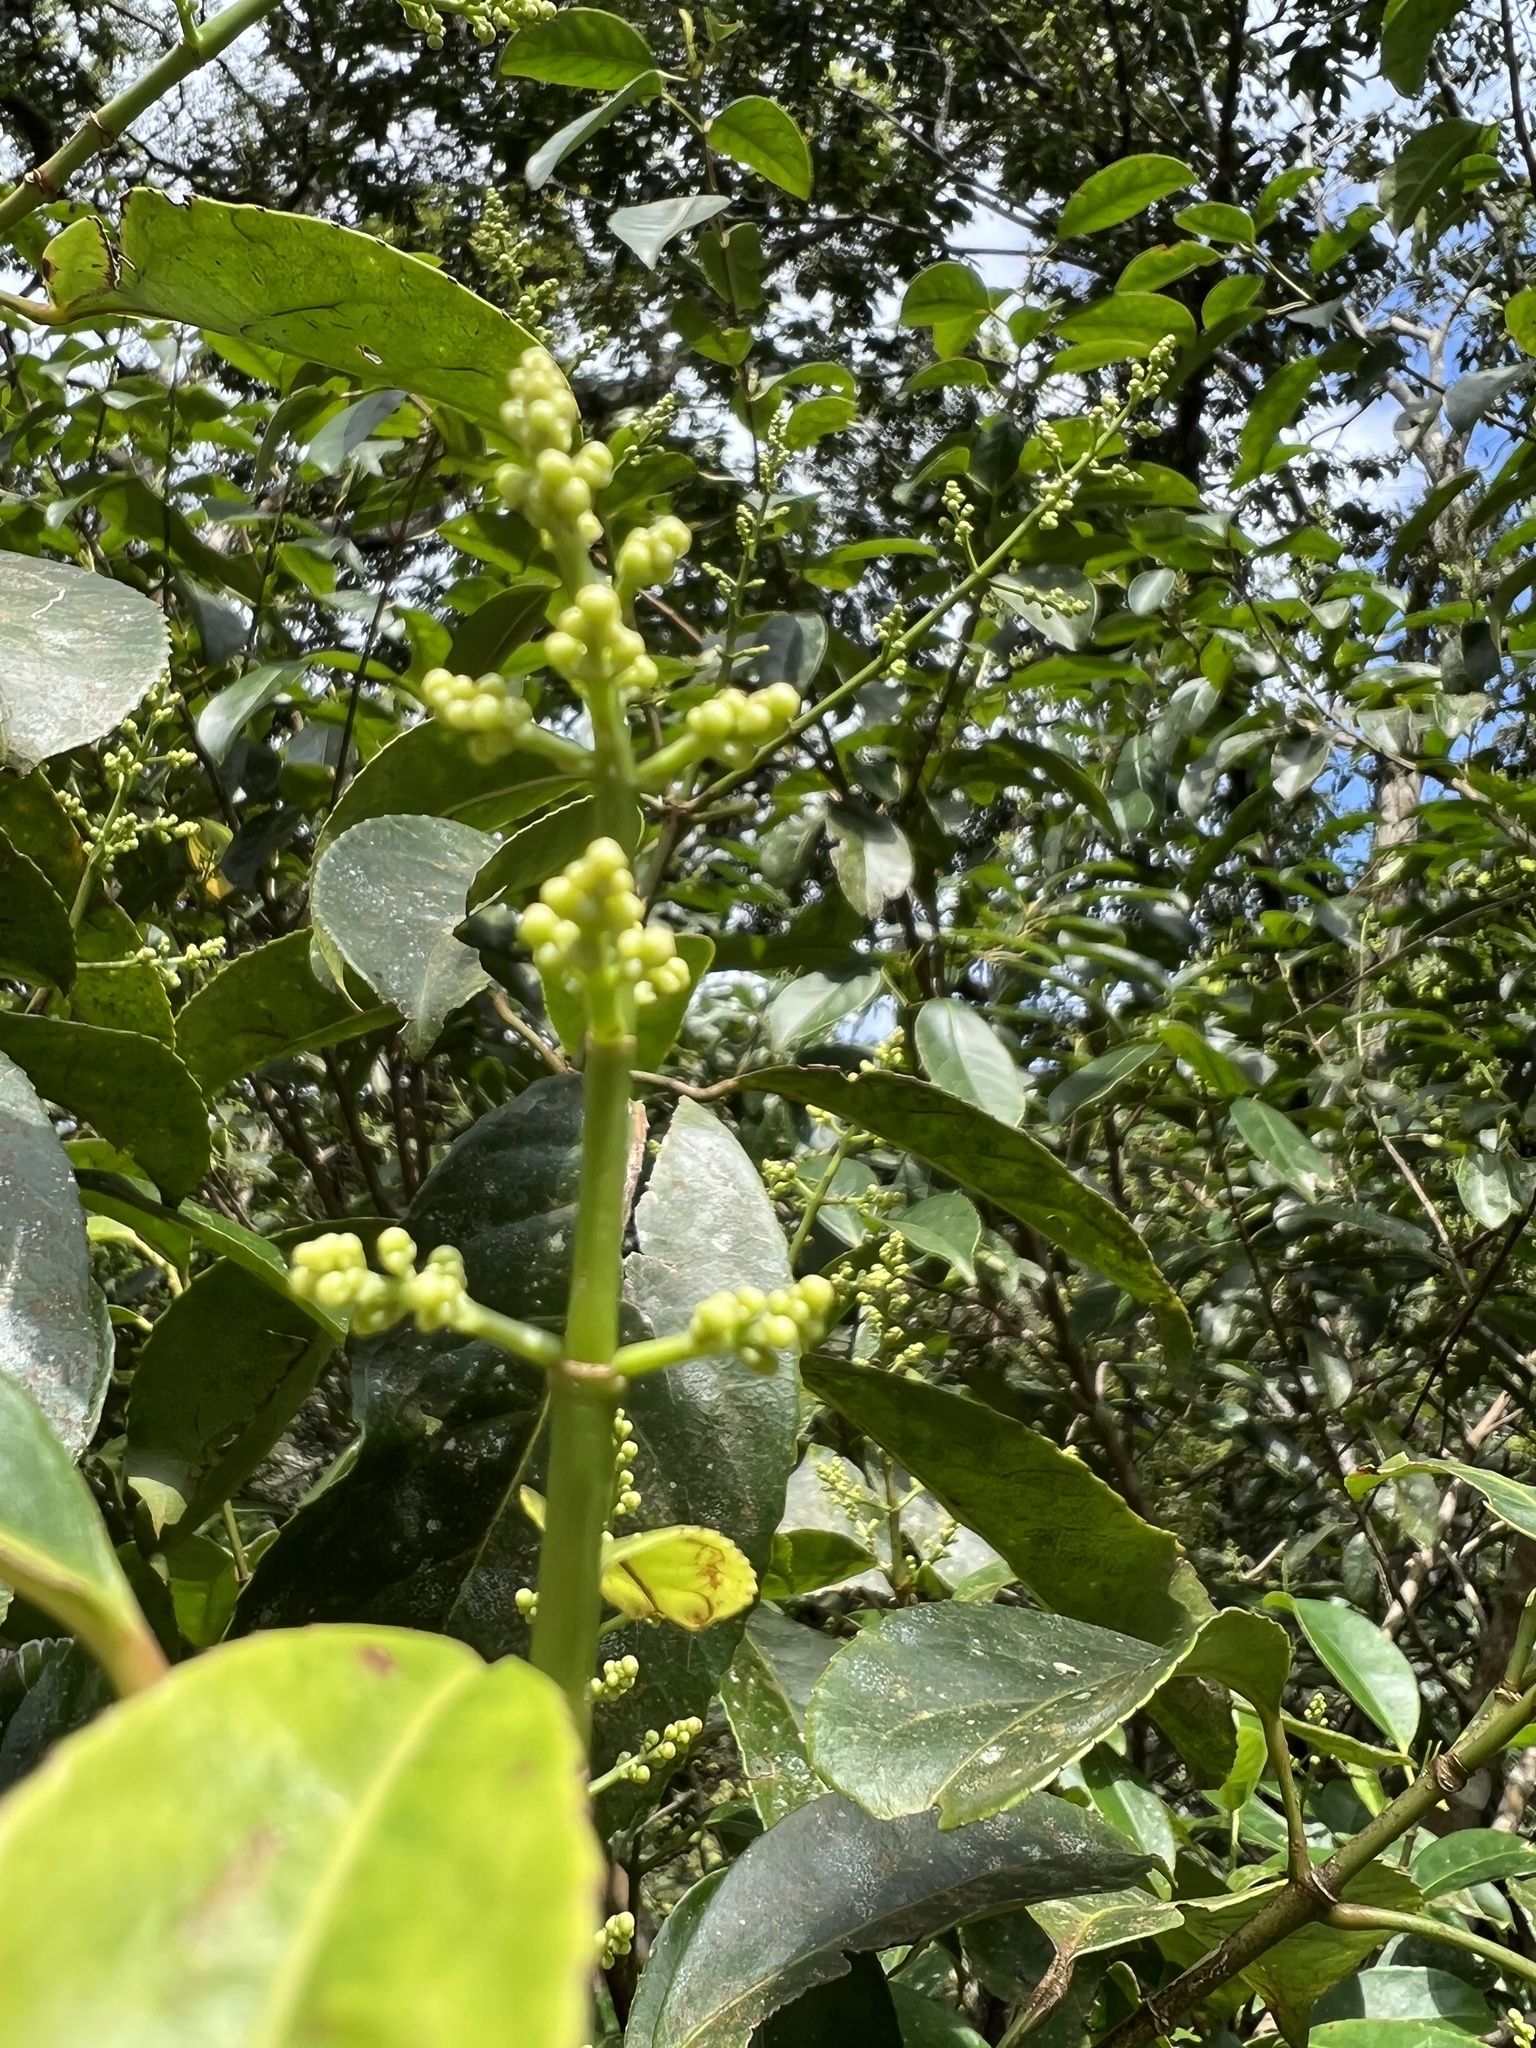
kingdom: Plantae
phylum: Tracheophyta
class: Magnoliopsida
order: Crossosomatales
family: Staphyleaceae
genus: Turpinia
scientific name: Turpinia formosana
